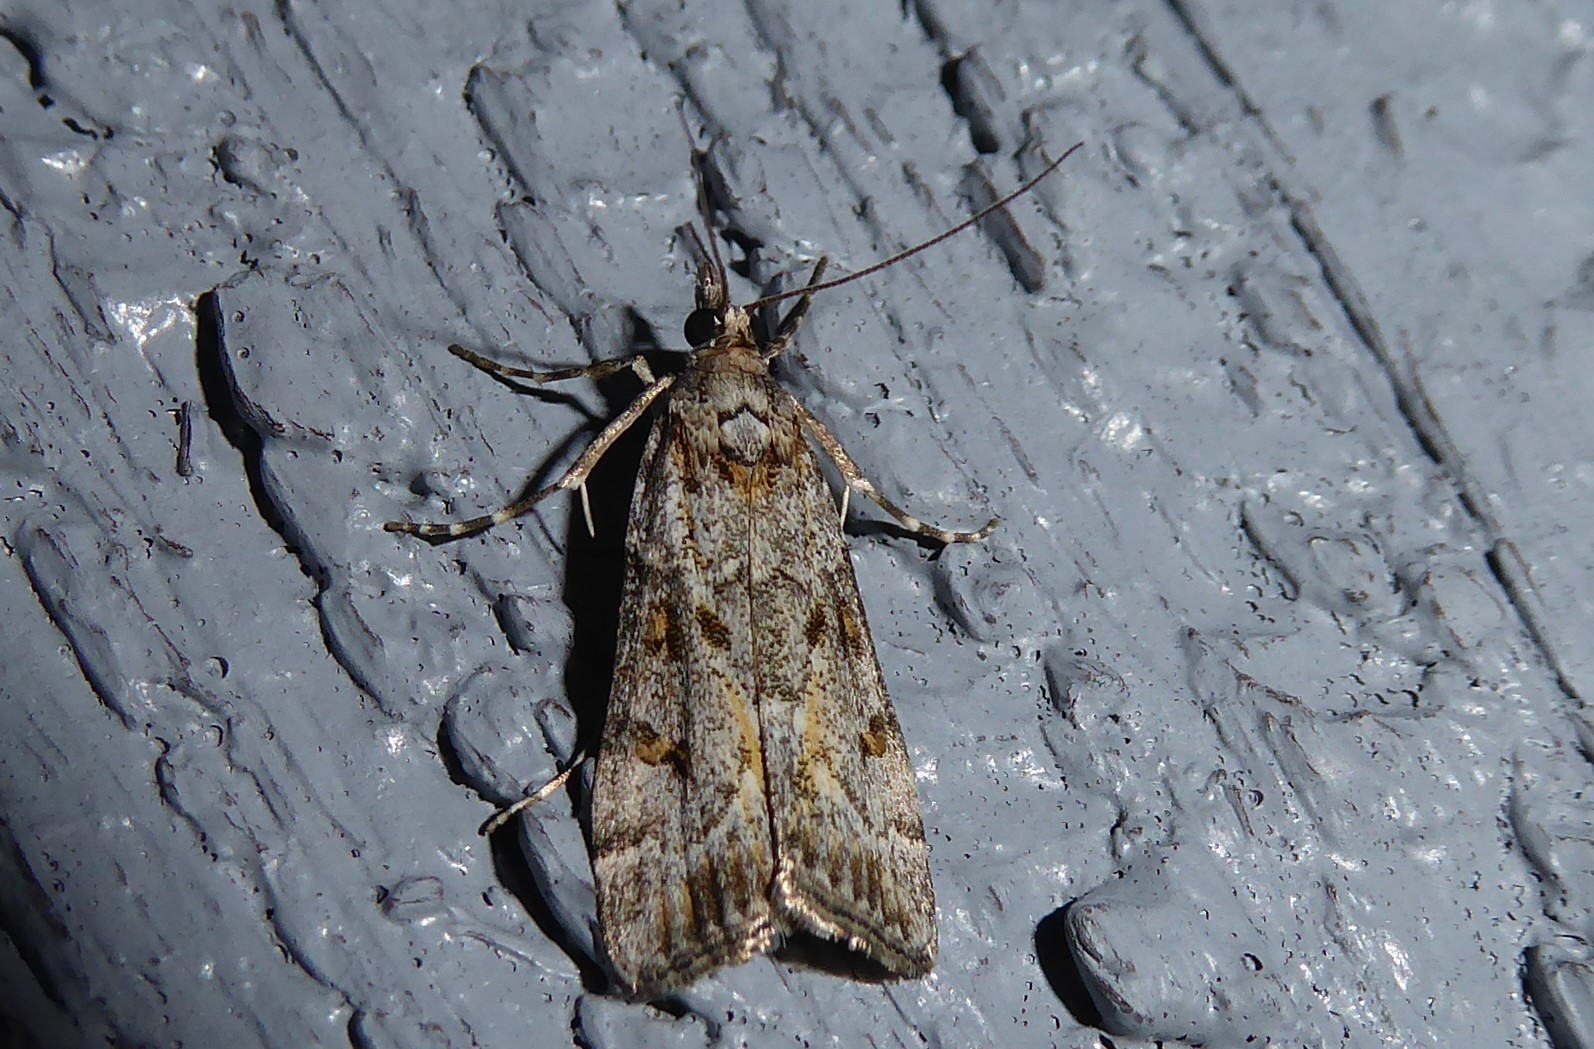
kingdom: Animalia
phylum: Arthropoda
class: Insecta
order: Lepidoptera
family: Crambidae
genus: Eudonia
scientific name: Eudonia diphtheralis
